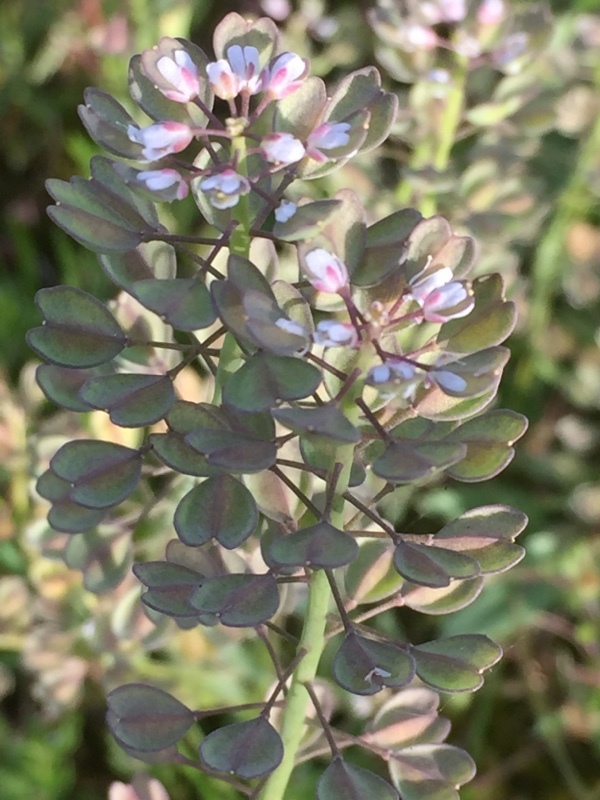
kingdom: Plantae
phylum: Tracheophyta
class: Magnoliopsida
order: Brassicales
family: Brassicaceae
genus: Teesdalia
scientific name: Teesdalia nudicaulis
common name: Shepherd's cress
